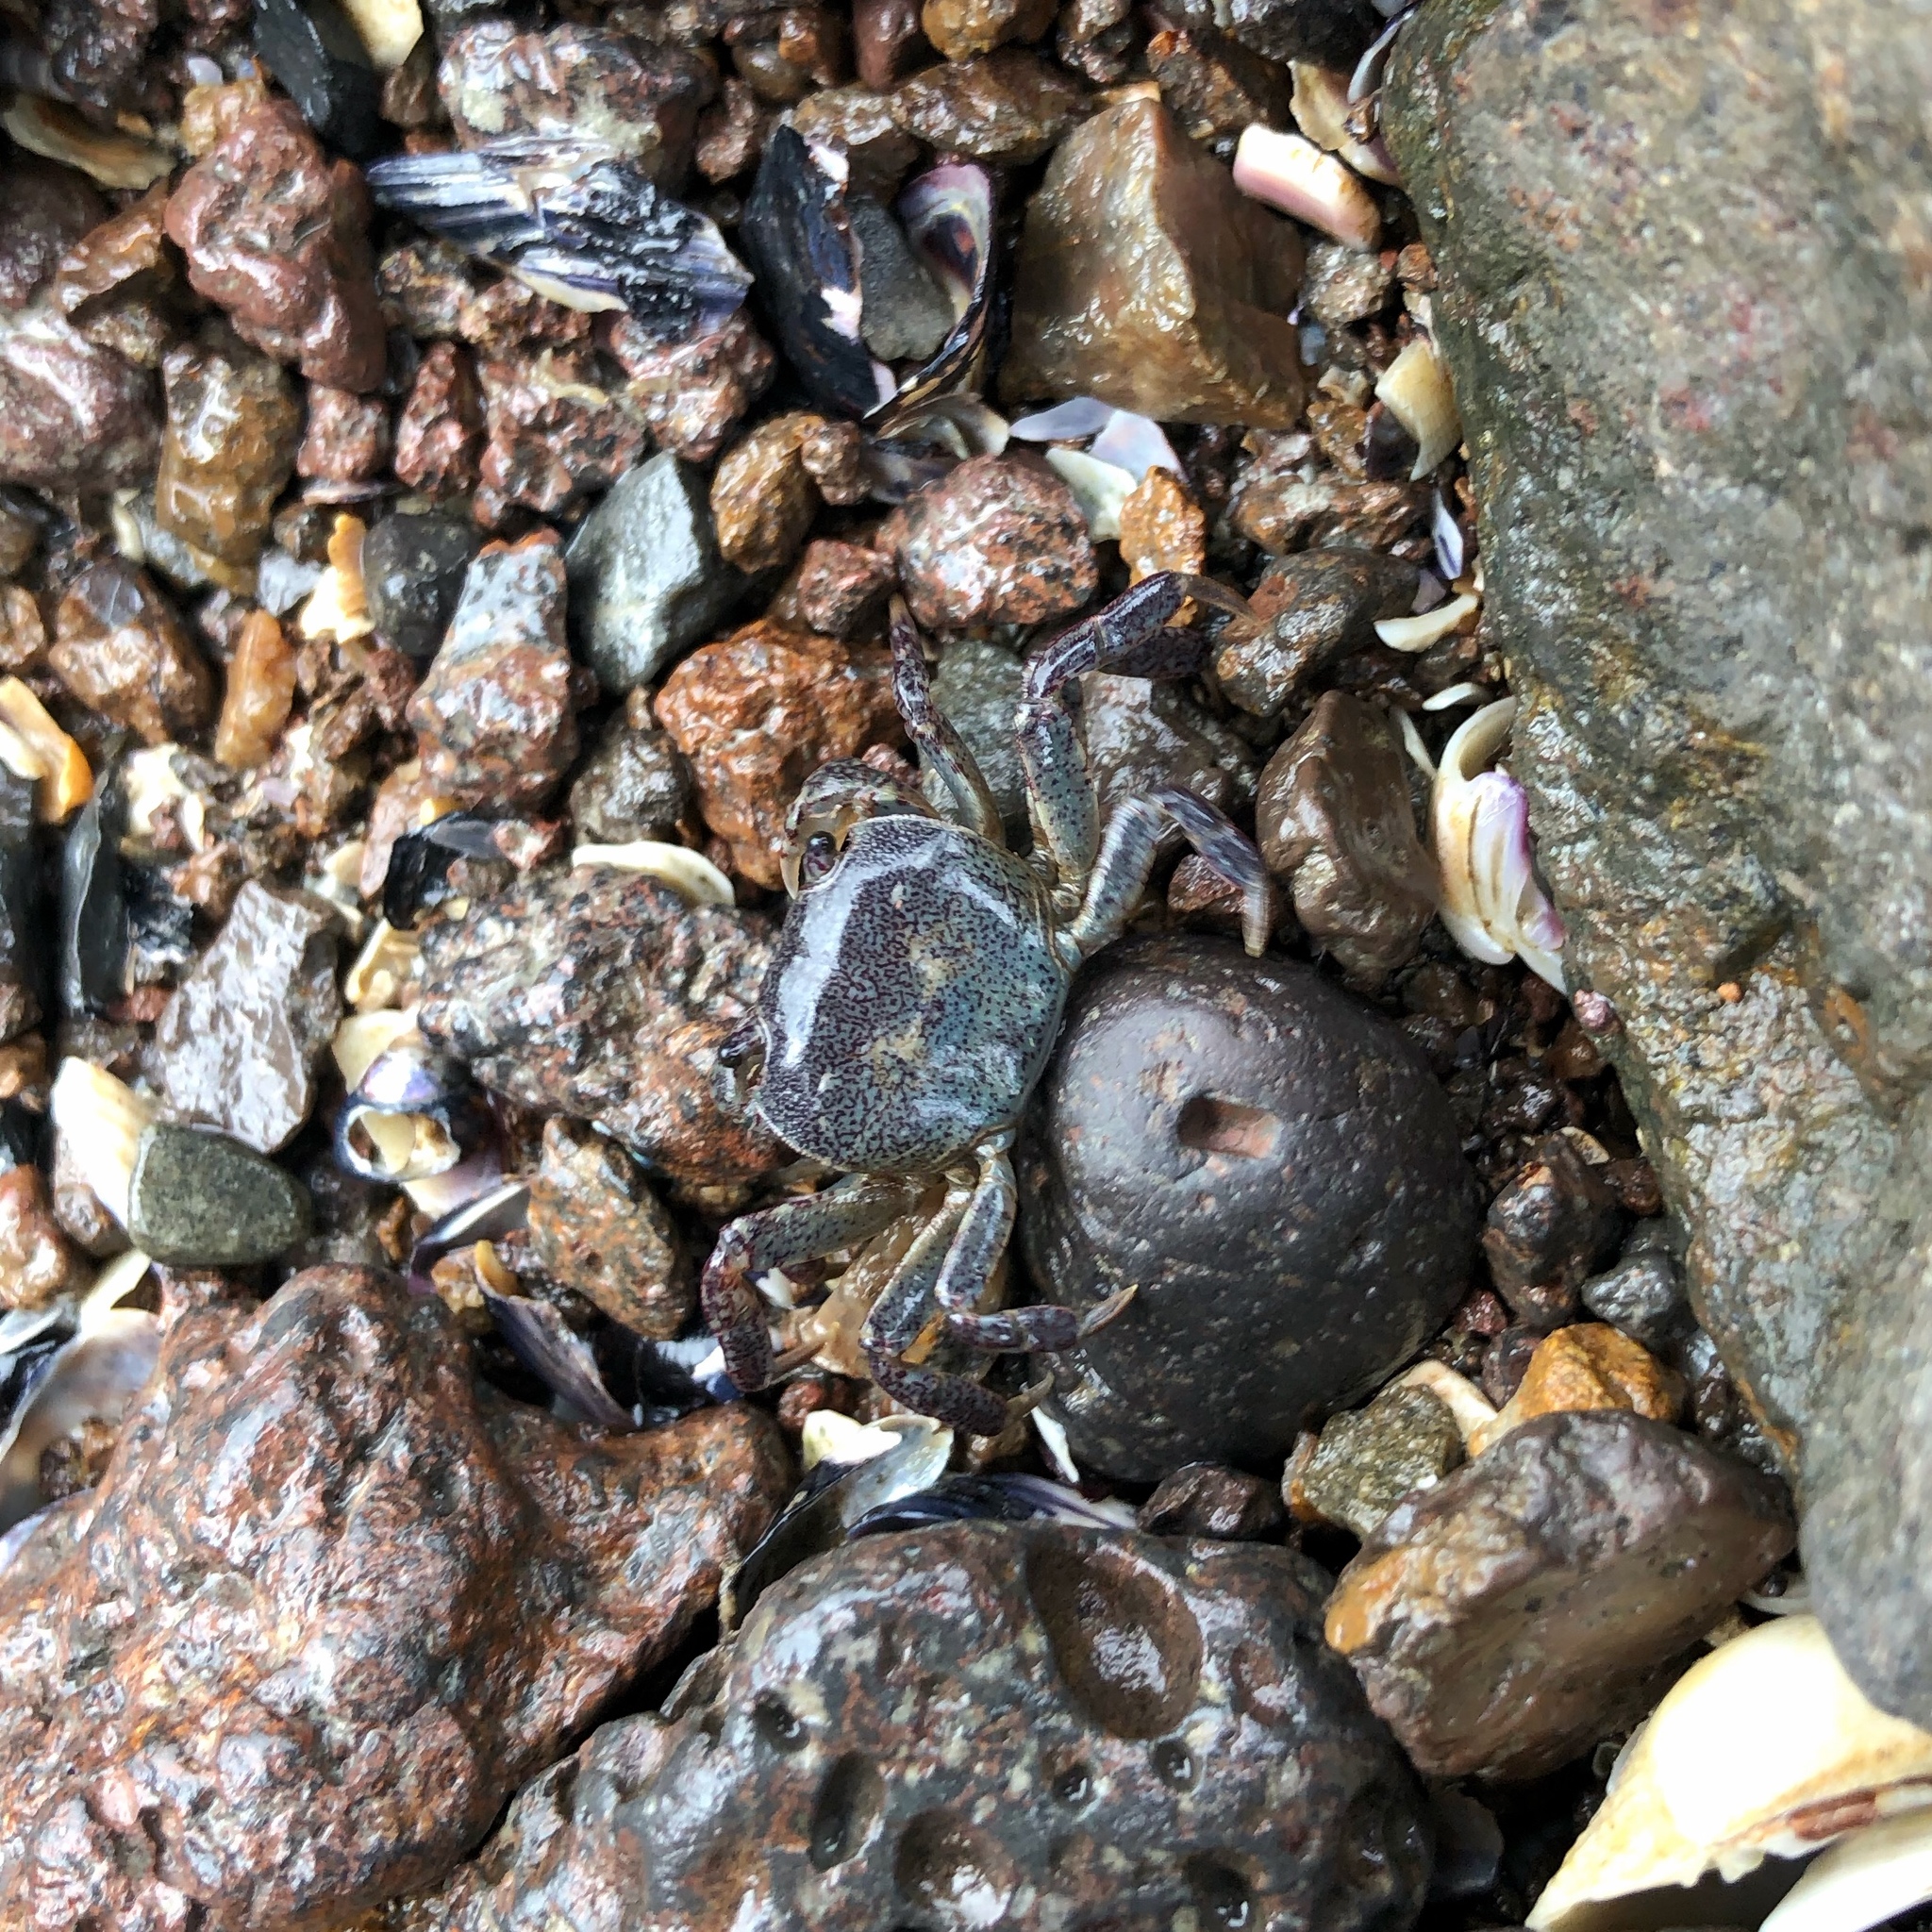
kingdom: Animalia
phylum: Arthropoda
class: Malacostraca
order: Decapoda
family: Varunidae
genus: Cyclograpsus
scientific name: Cyclograpsus lavauxi
